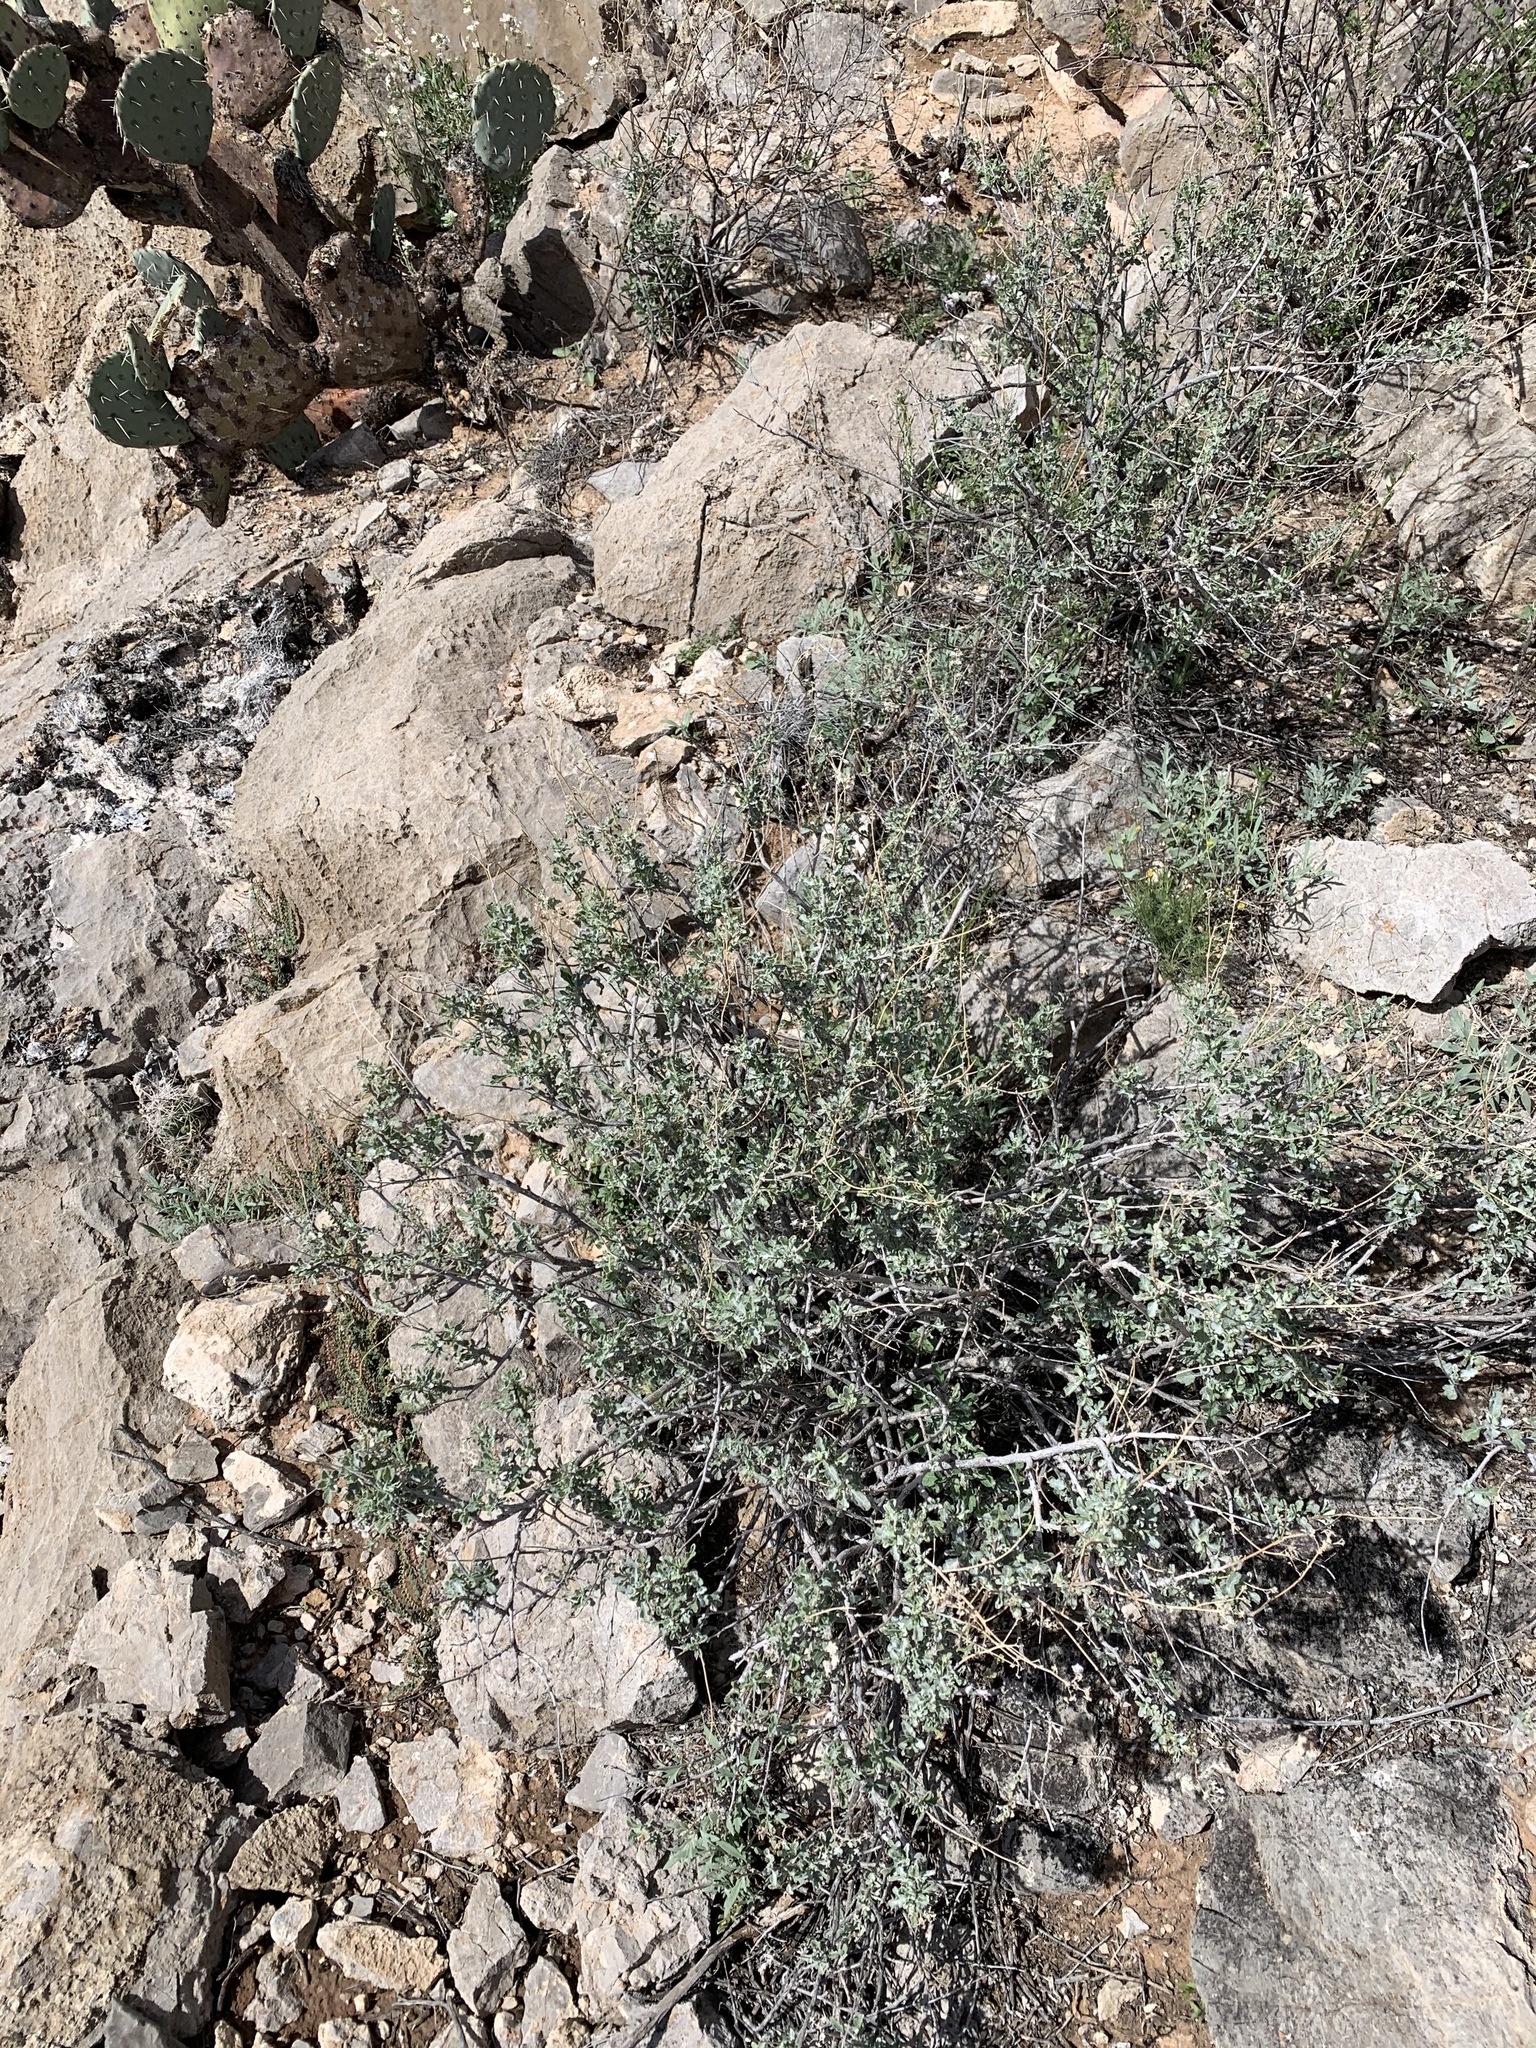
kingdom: Plantae
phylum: Tracheophyta
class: Magnoliopsida
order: Asterales
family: Asteraceae
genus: Parthenium
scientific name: Parthenium incanum
